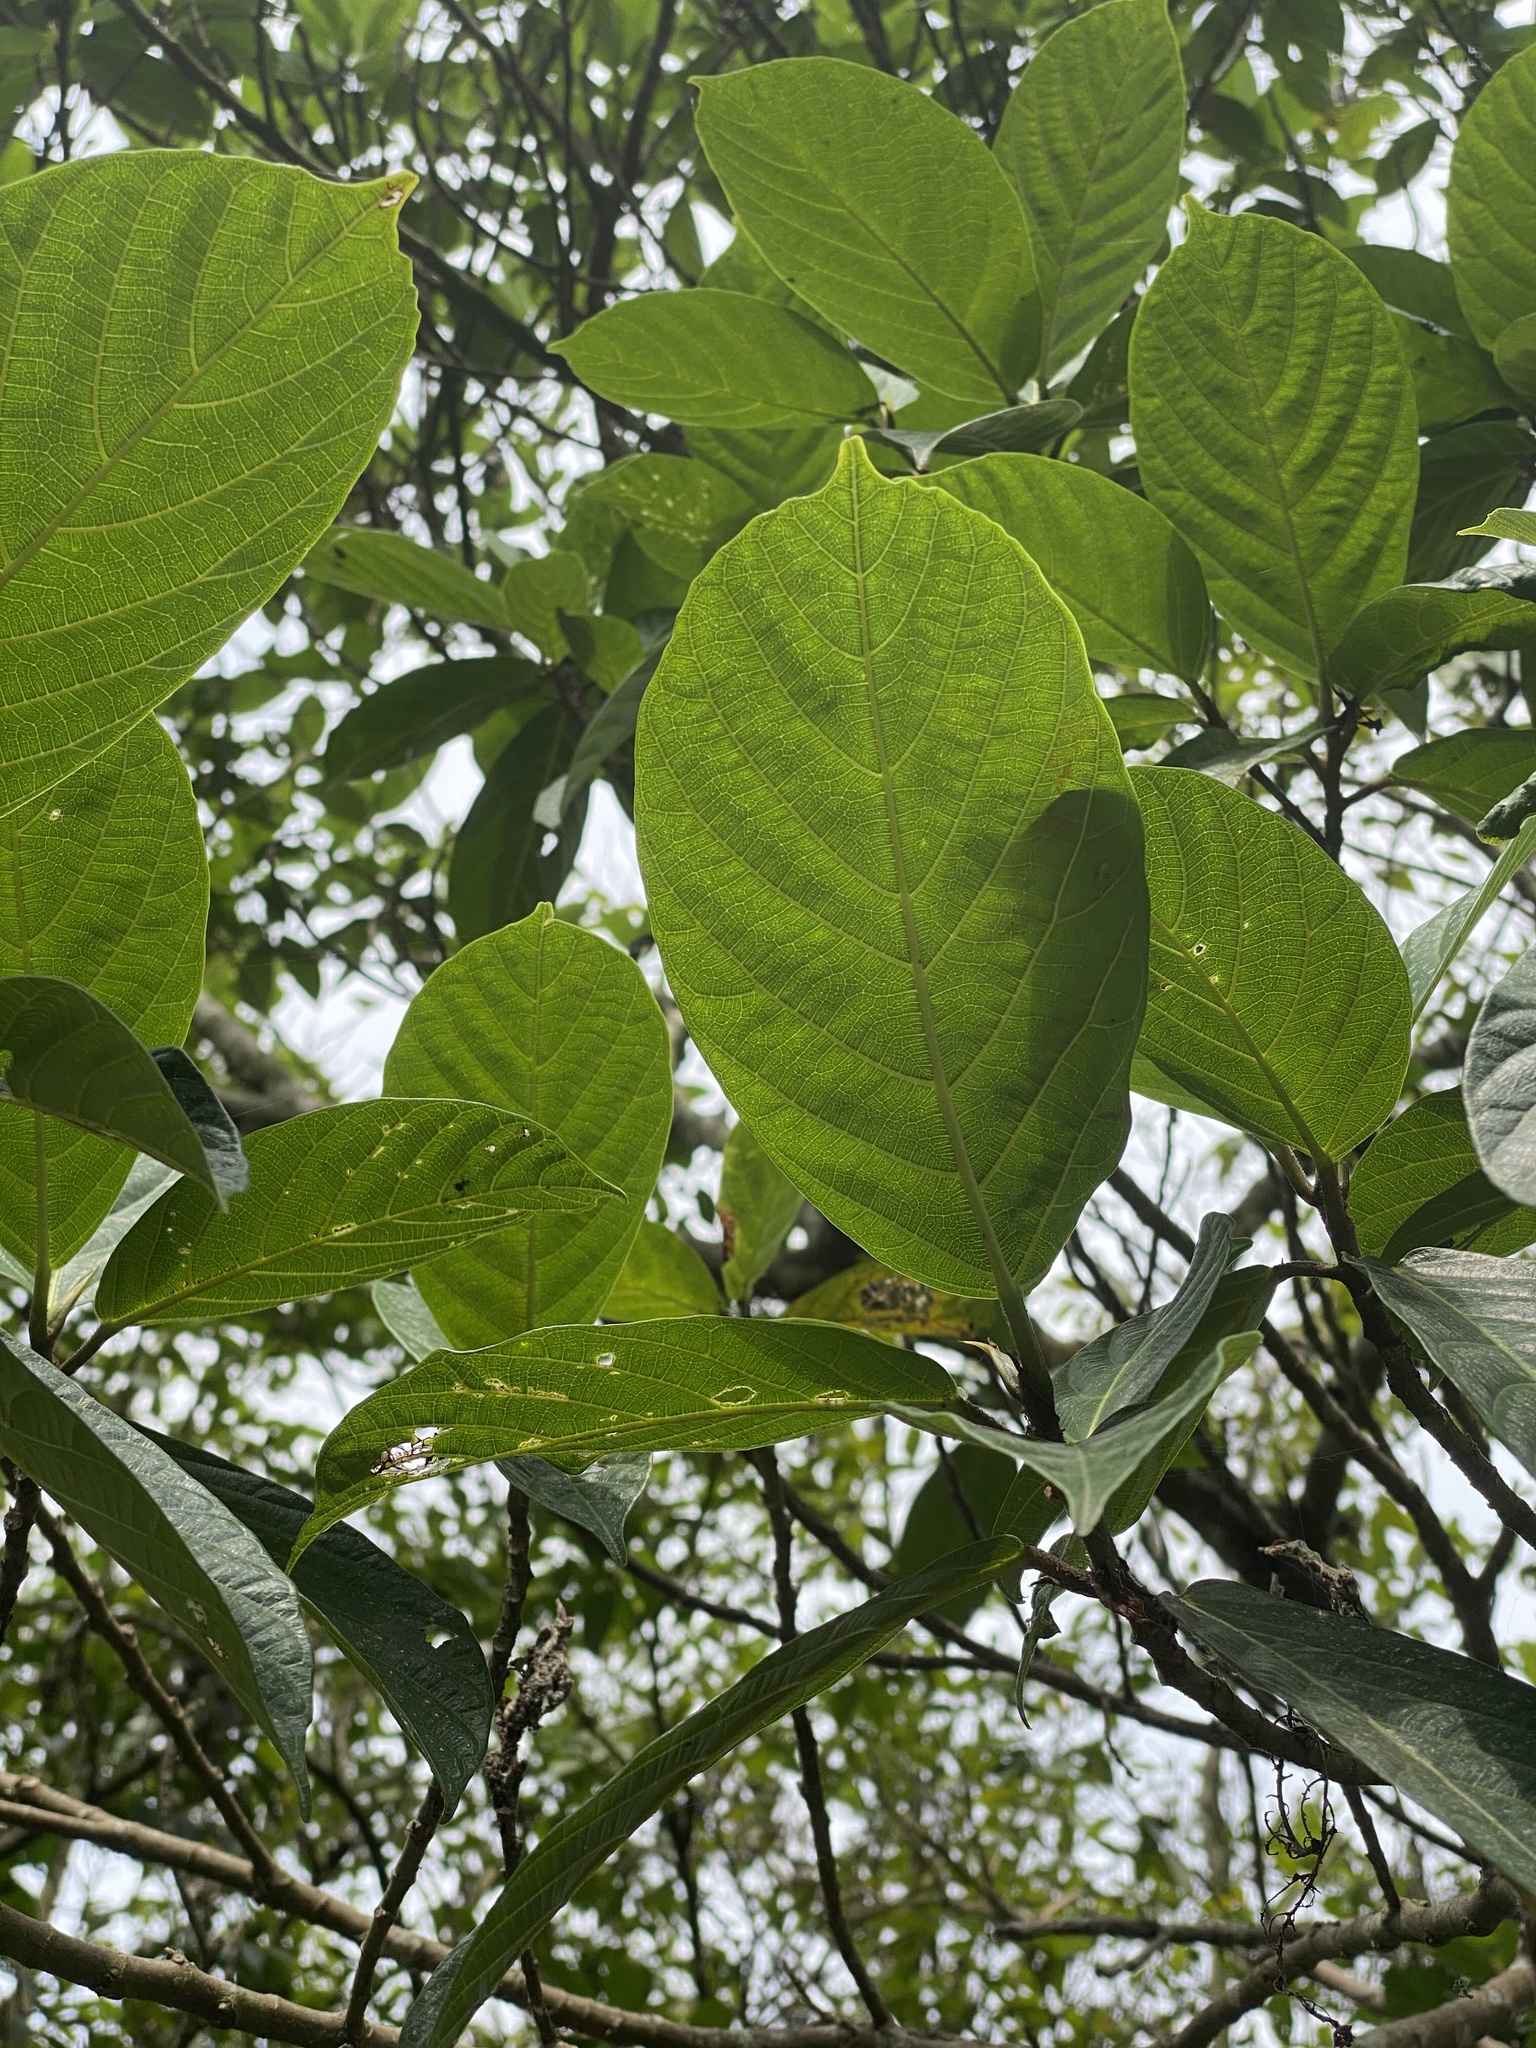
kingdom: Plantae
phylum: Tracheophyta
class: Magnoliopsida
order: Rosales
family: Urticaceae
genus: Dendrocnide
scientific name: Dendrocnide meyeniana
